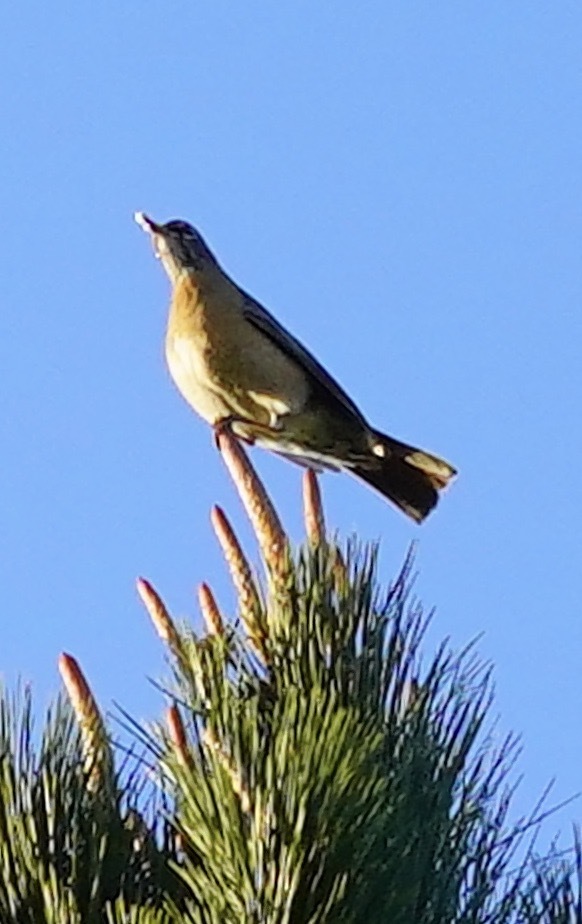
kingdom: Animalia
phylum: Chordata
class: Aves
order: Passeriformes
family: Turdidae
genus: Turdus
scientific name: Turdus migratorius
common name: American robin
